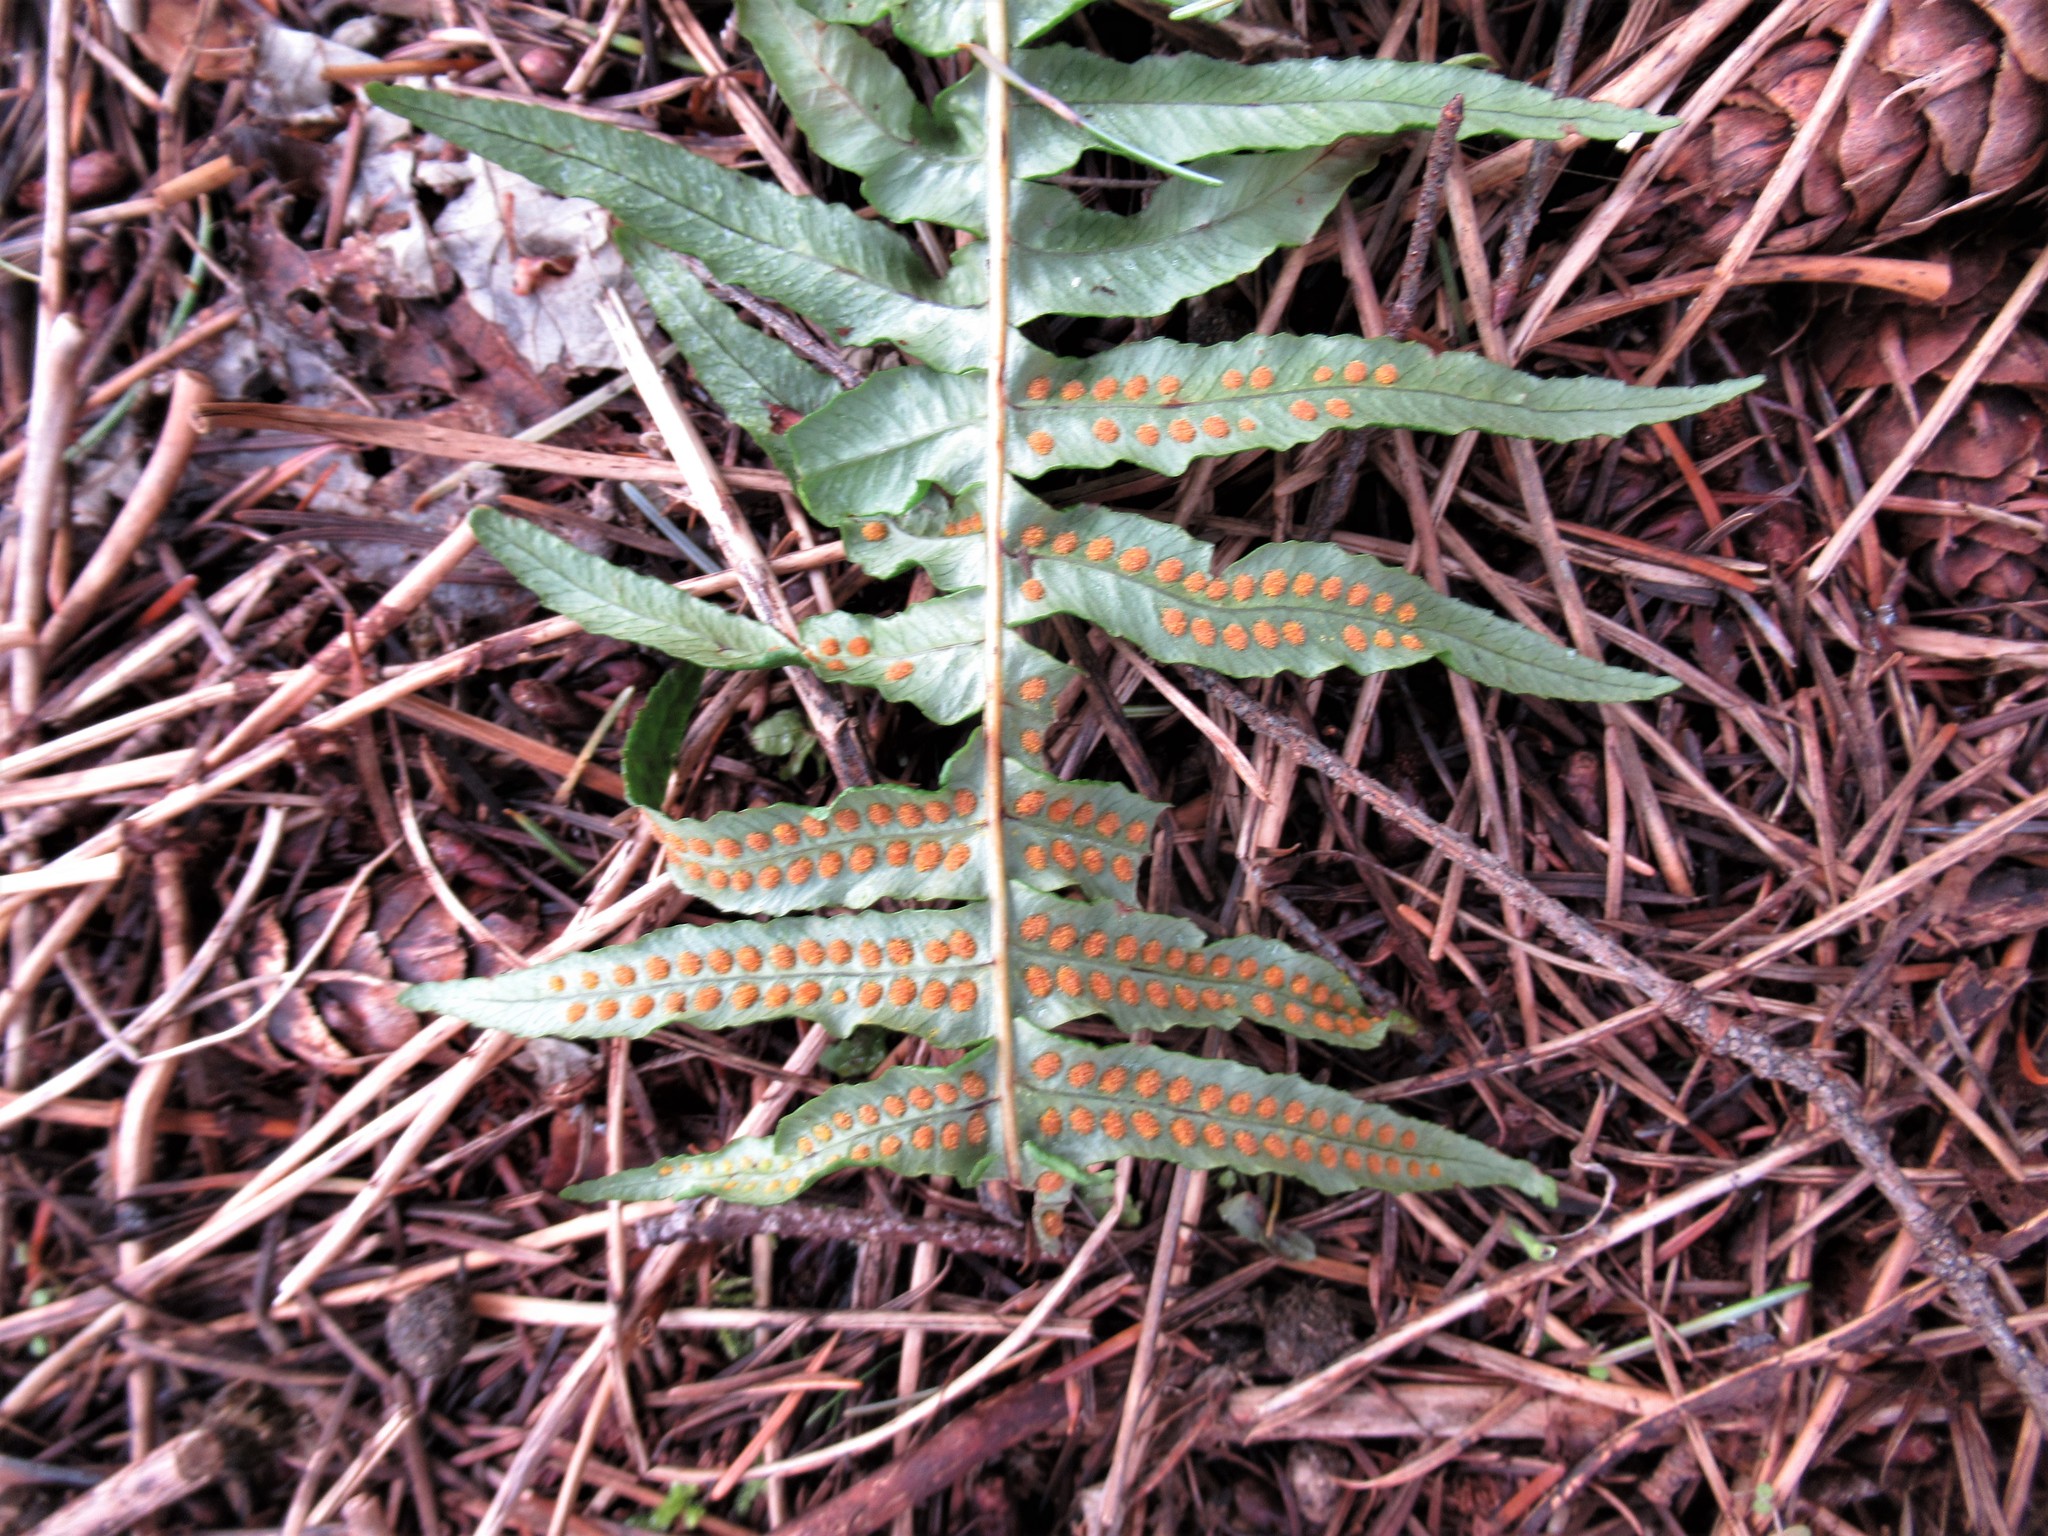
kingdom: Plantae
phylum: Tracheophyta
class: Polypodiopsida
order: Polypodiales
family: Polypodiaceae
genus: Polypodium
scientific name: Polypodium glycyrrhiza
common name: Licorice fern
